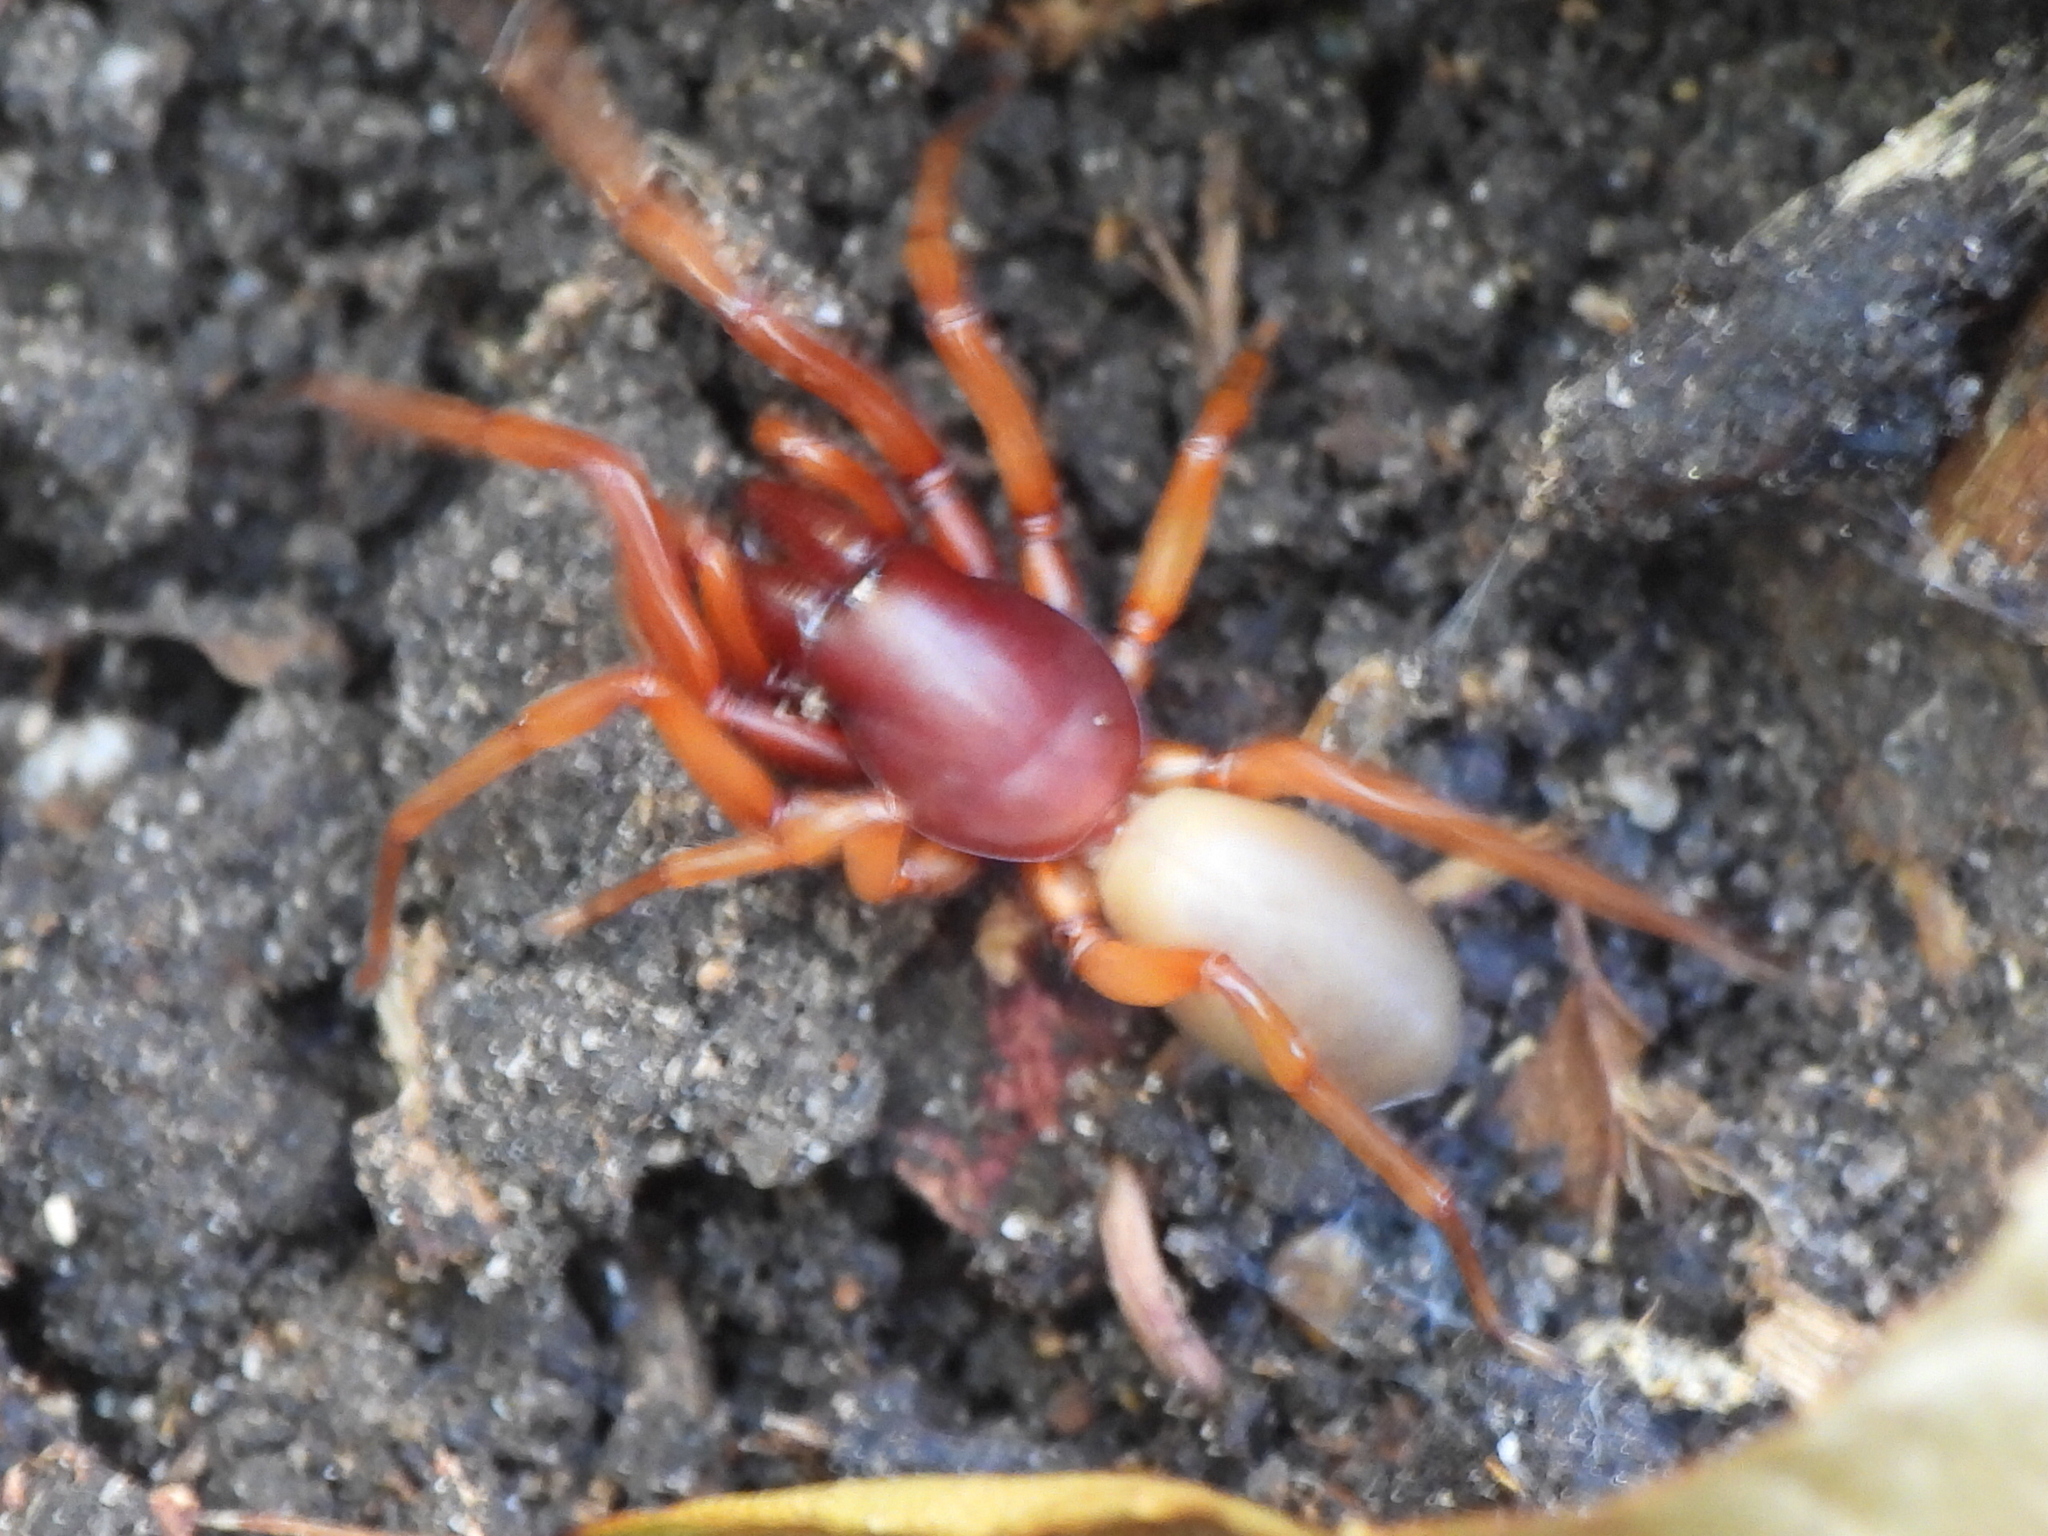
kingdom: Animalia
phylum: Arthropoda
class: Arachnida
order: Araneae
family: Dysderidae
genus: Dysdera
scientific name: Dysdera crocata
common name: Woodlouse spider
